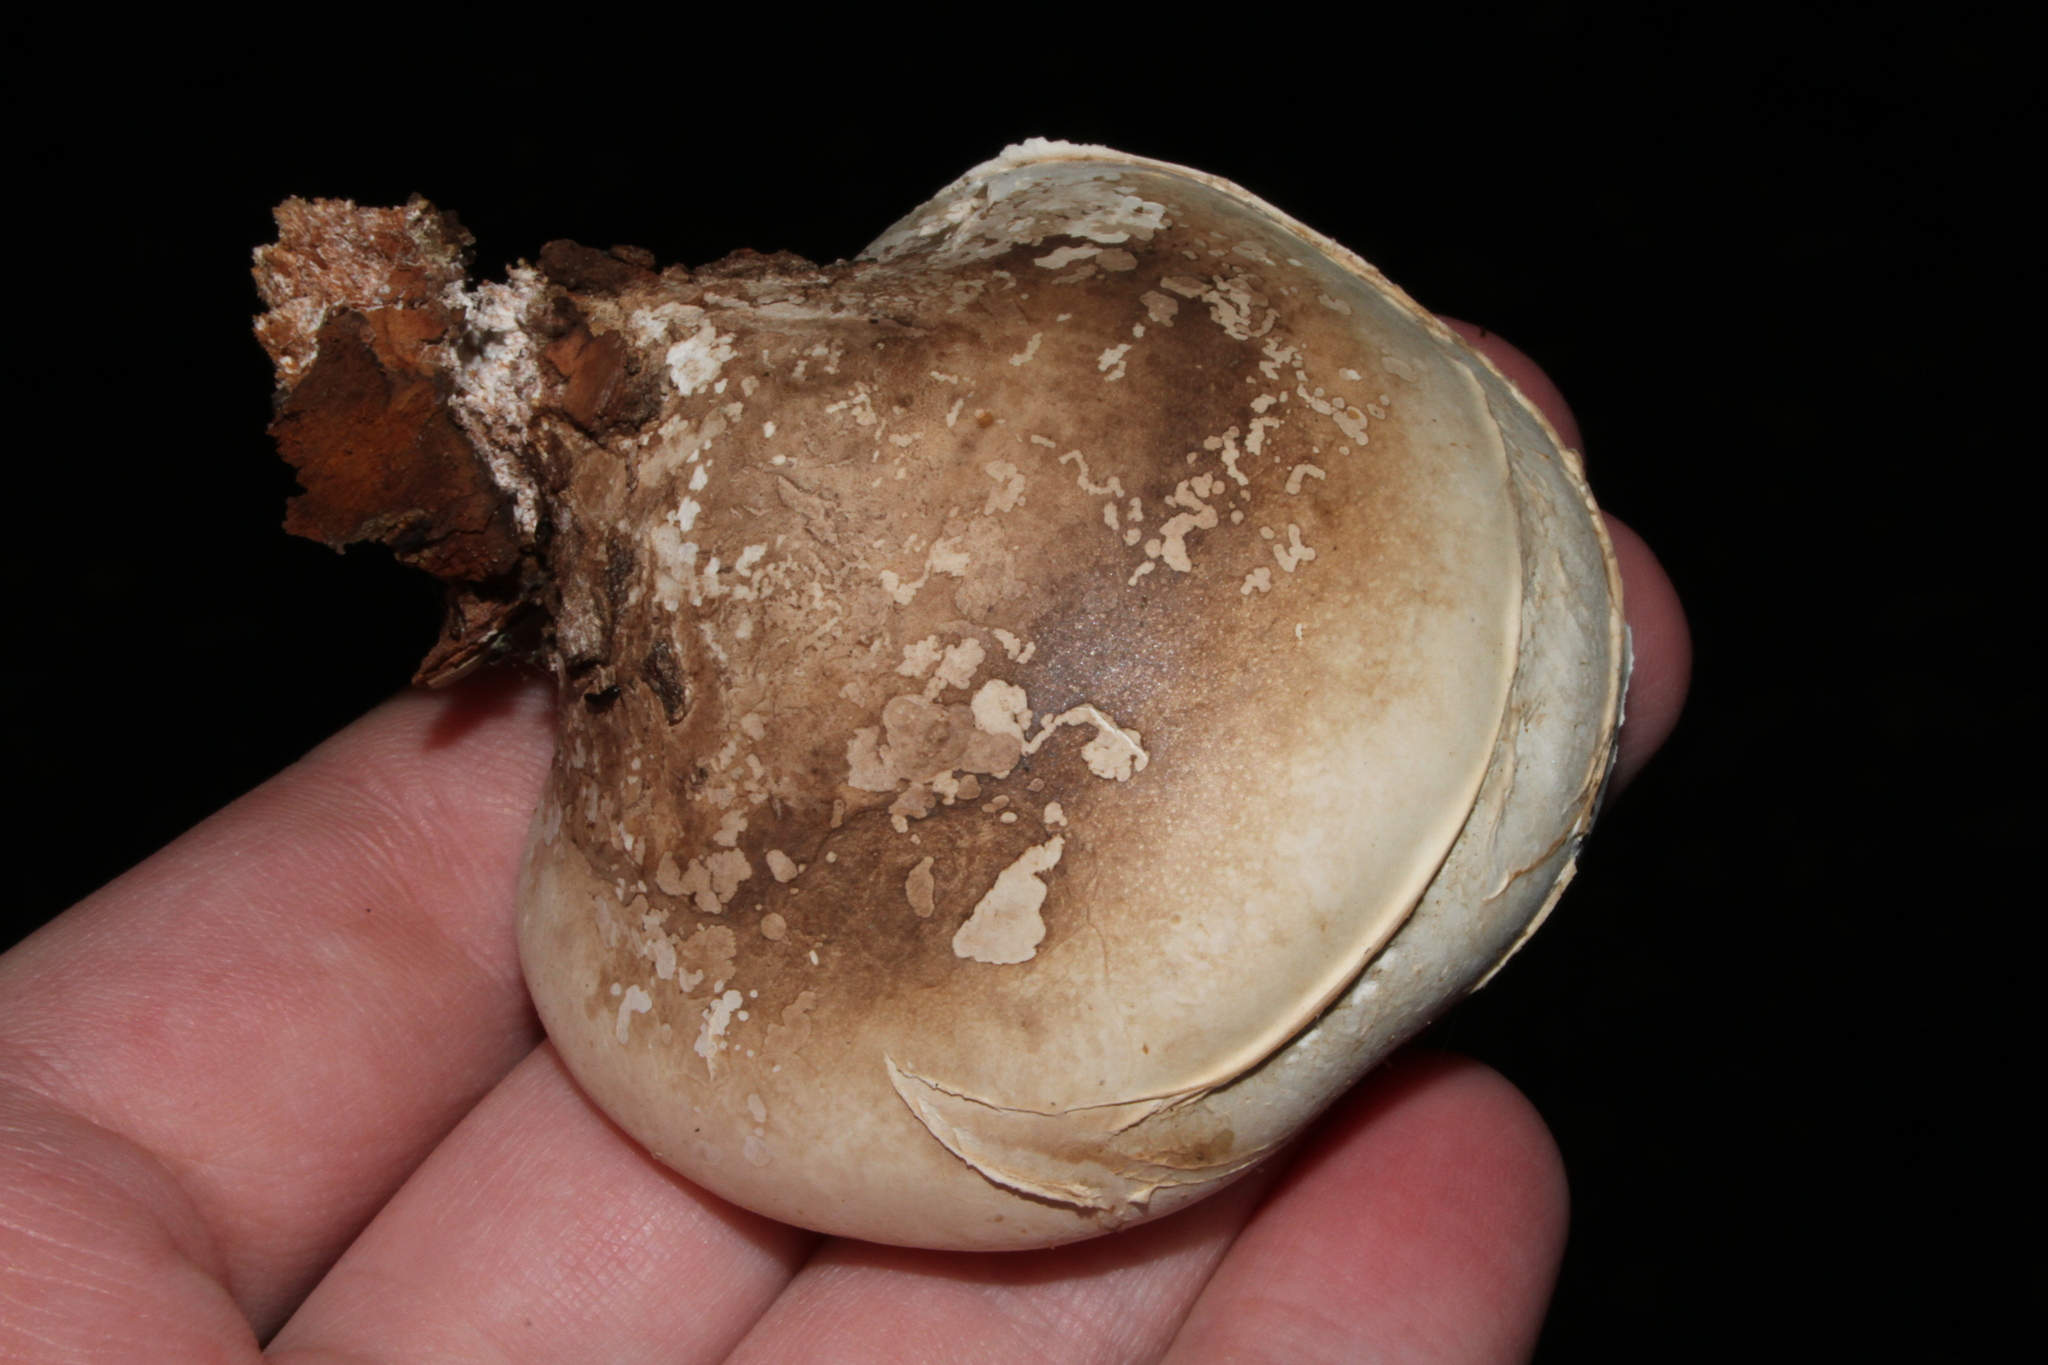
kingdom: Fungi
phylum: Basidiomycota
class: Agaricomycetes
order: Polyporales
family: Fomitopsidaceae
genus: Fomitopsis
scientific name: Fomitopsis betulina
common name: Birch polypore
